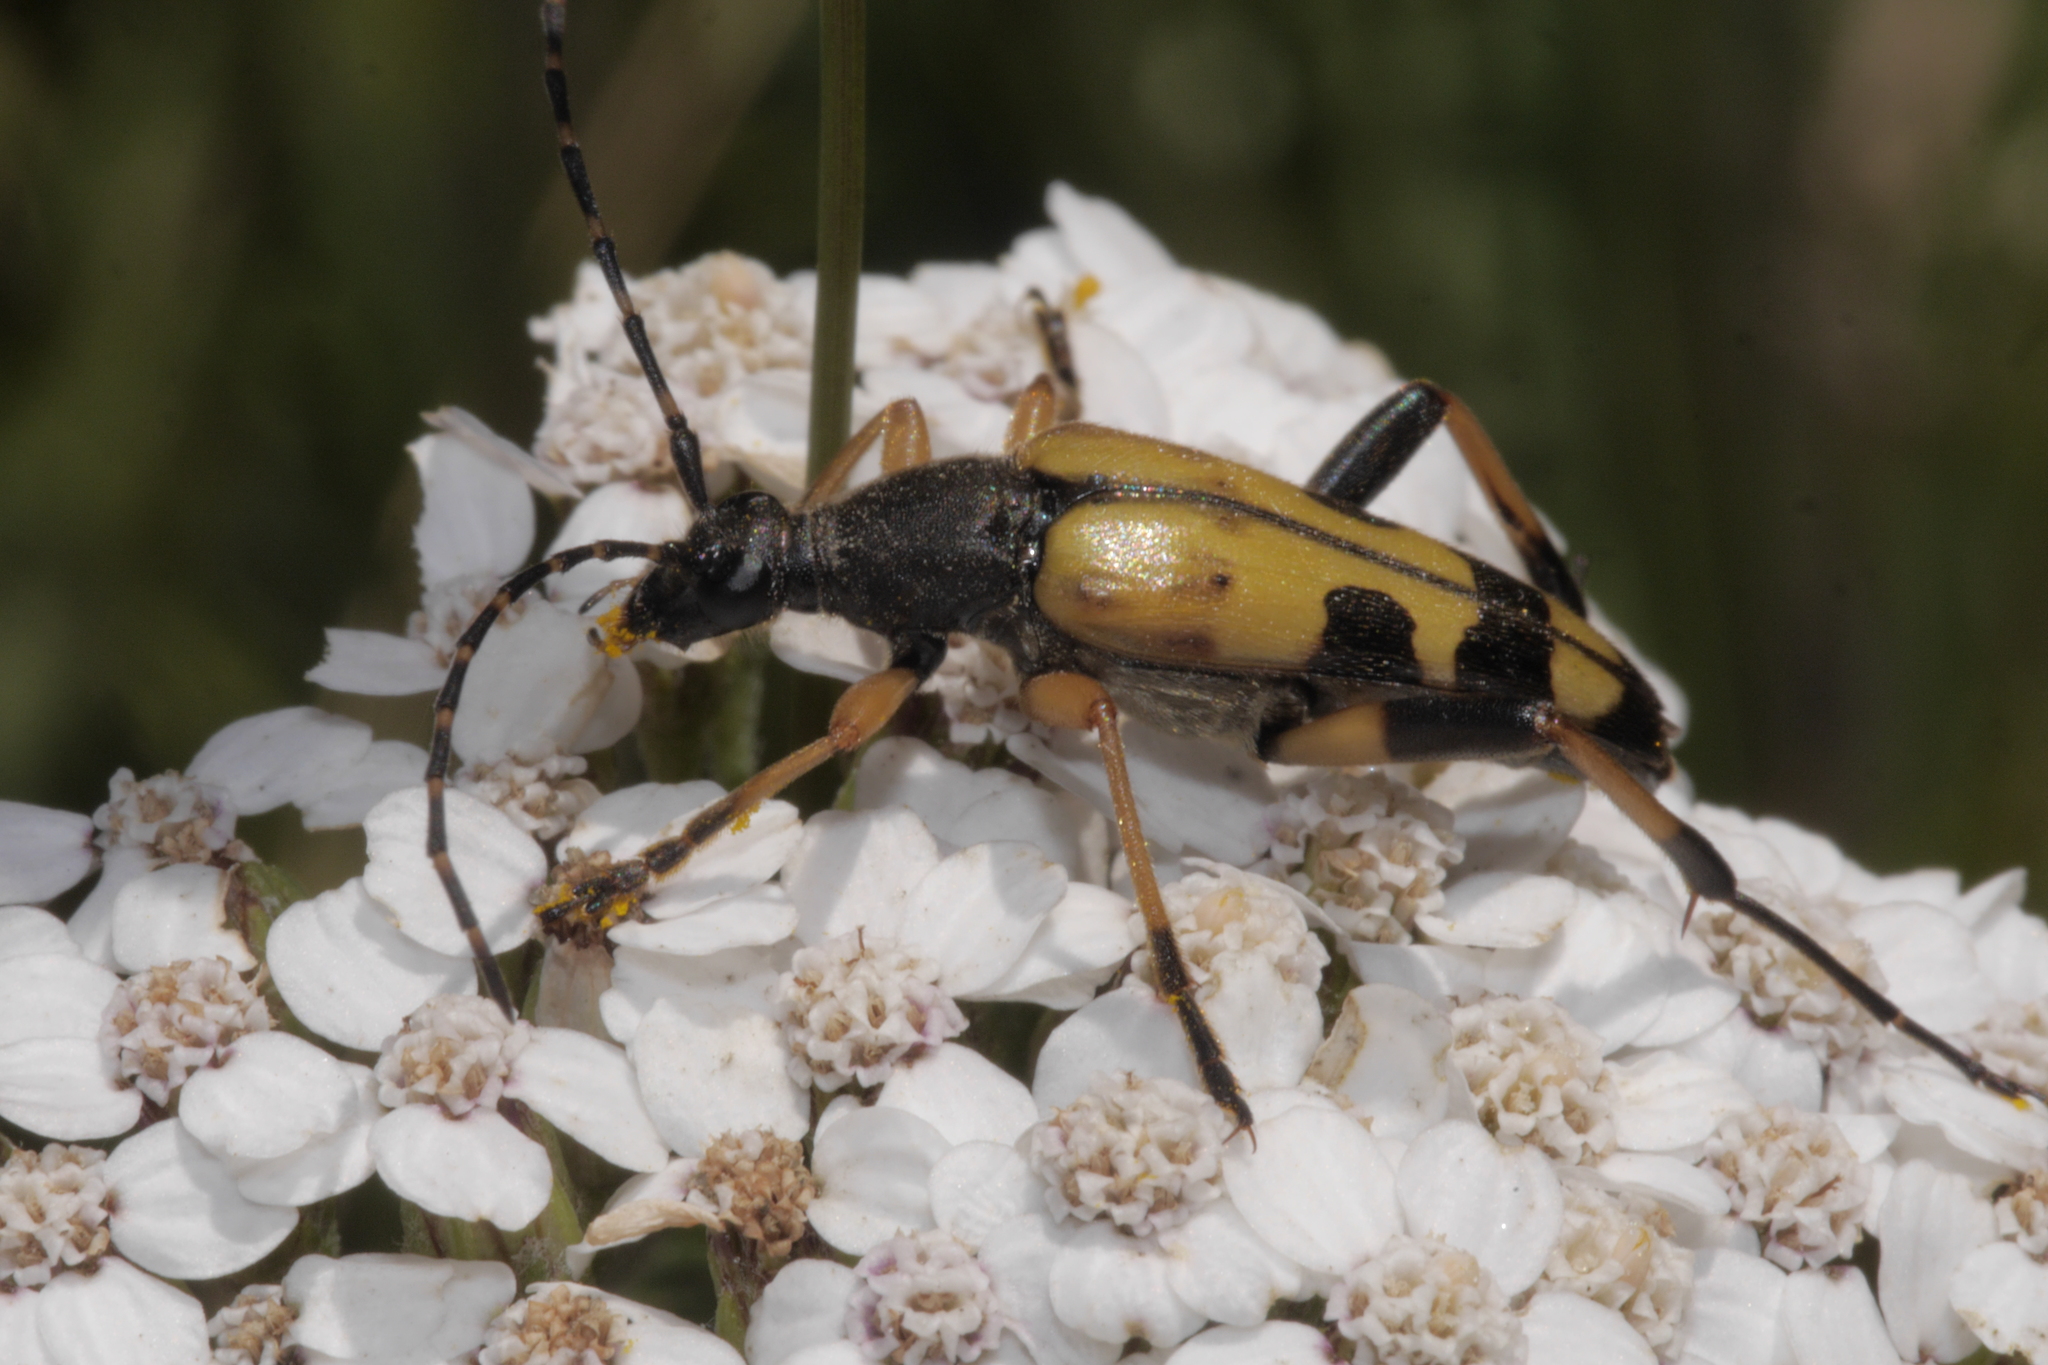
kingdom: Animalia
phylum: Arthropoda
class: Insecta
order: Coleoptera
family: Cerambycidae
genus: Rutpela
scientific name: Rutpela maculata
